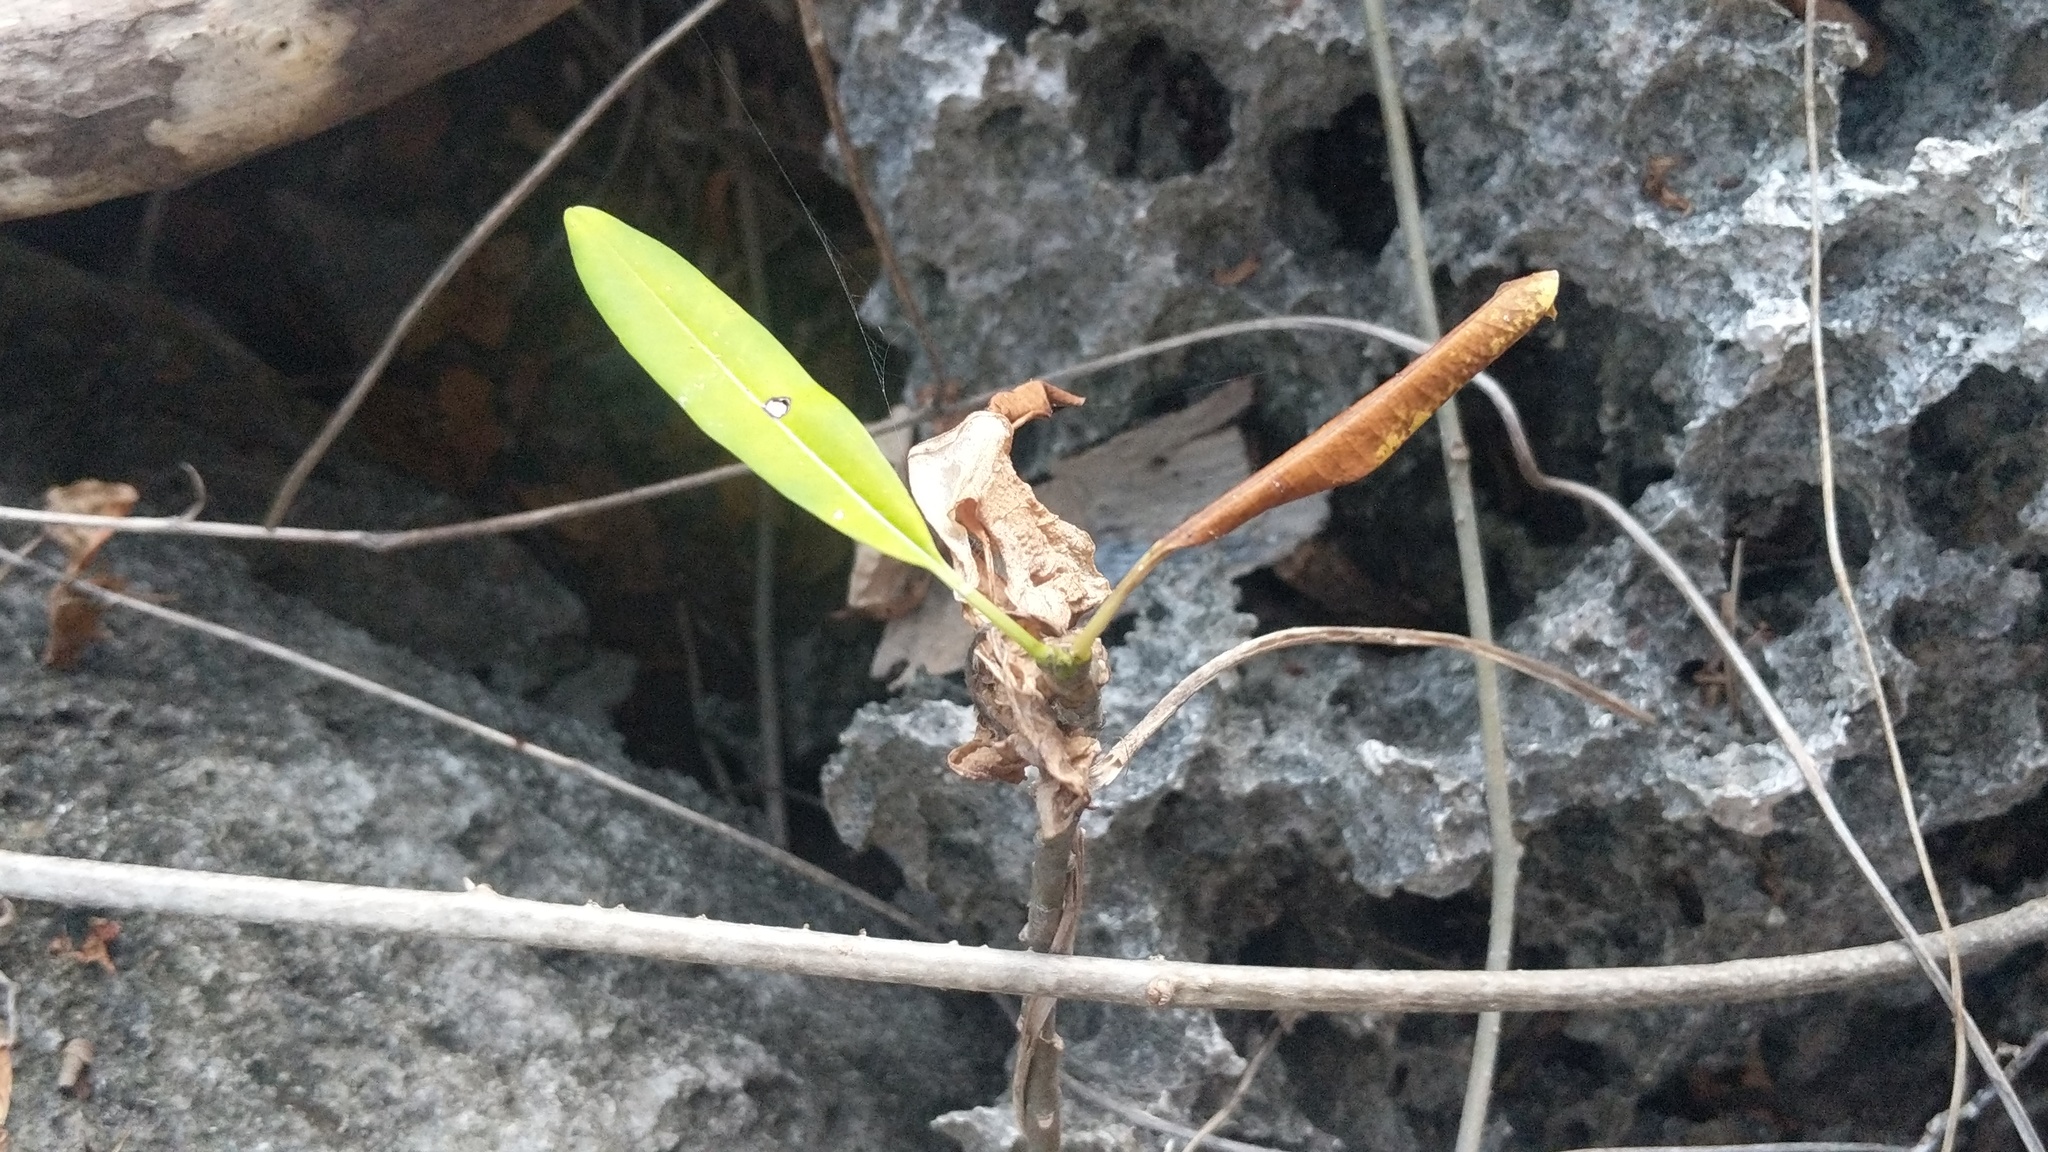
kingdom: Plantae
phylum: Tracheophyta
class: Magnoliopsida
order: Gentianales
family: Apocynaceae
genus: Plumeria
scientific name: Plumeria obtusa
